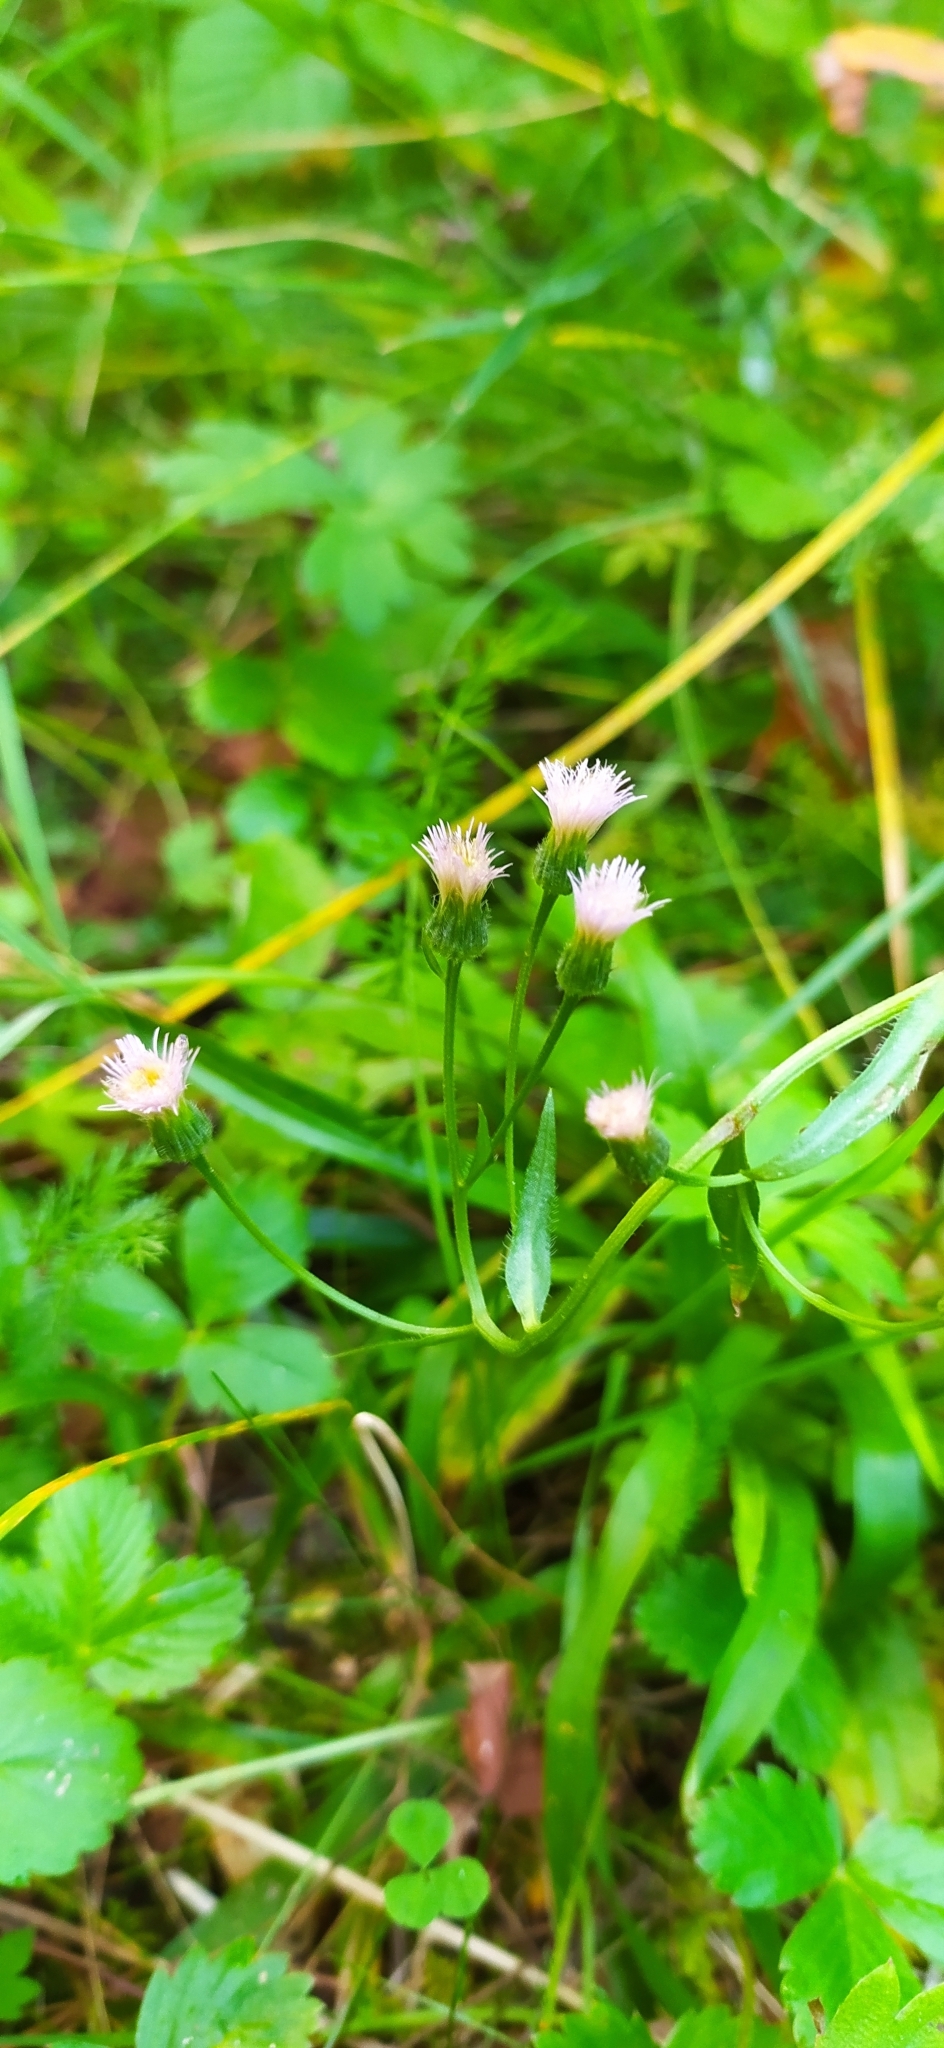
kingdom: Plantae
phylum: Tracheophyta
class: Magnoliopsida
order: Asterales
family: Asteraceae
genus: Erigeron
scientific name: Erigeron acris
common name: Blue fleabane
